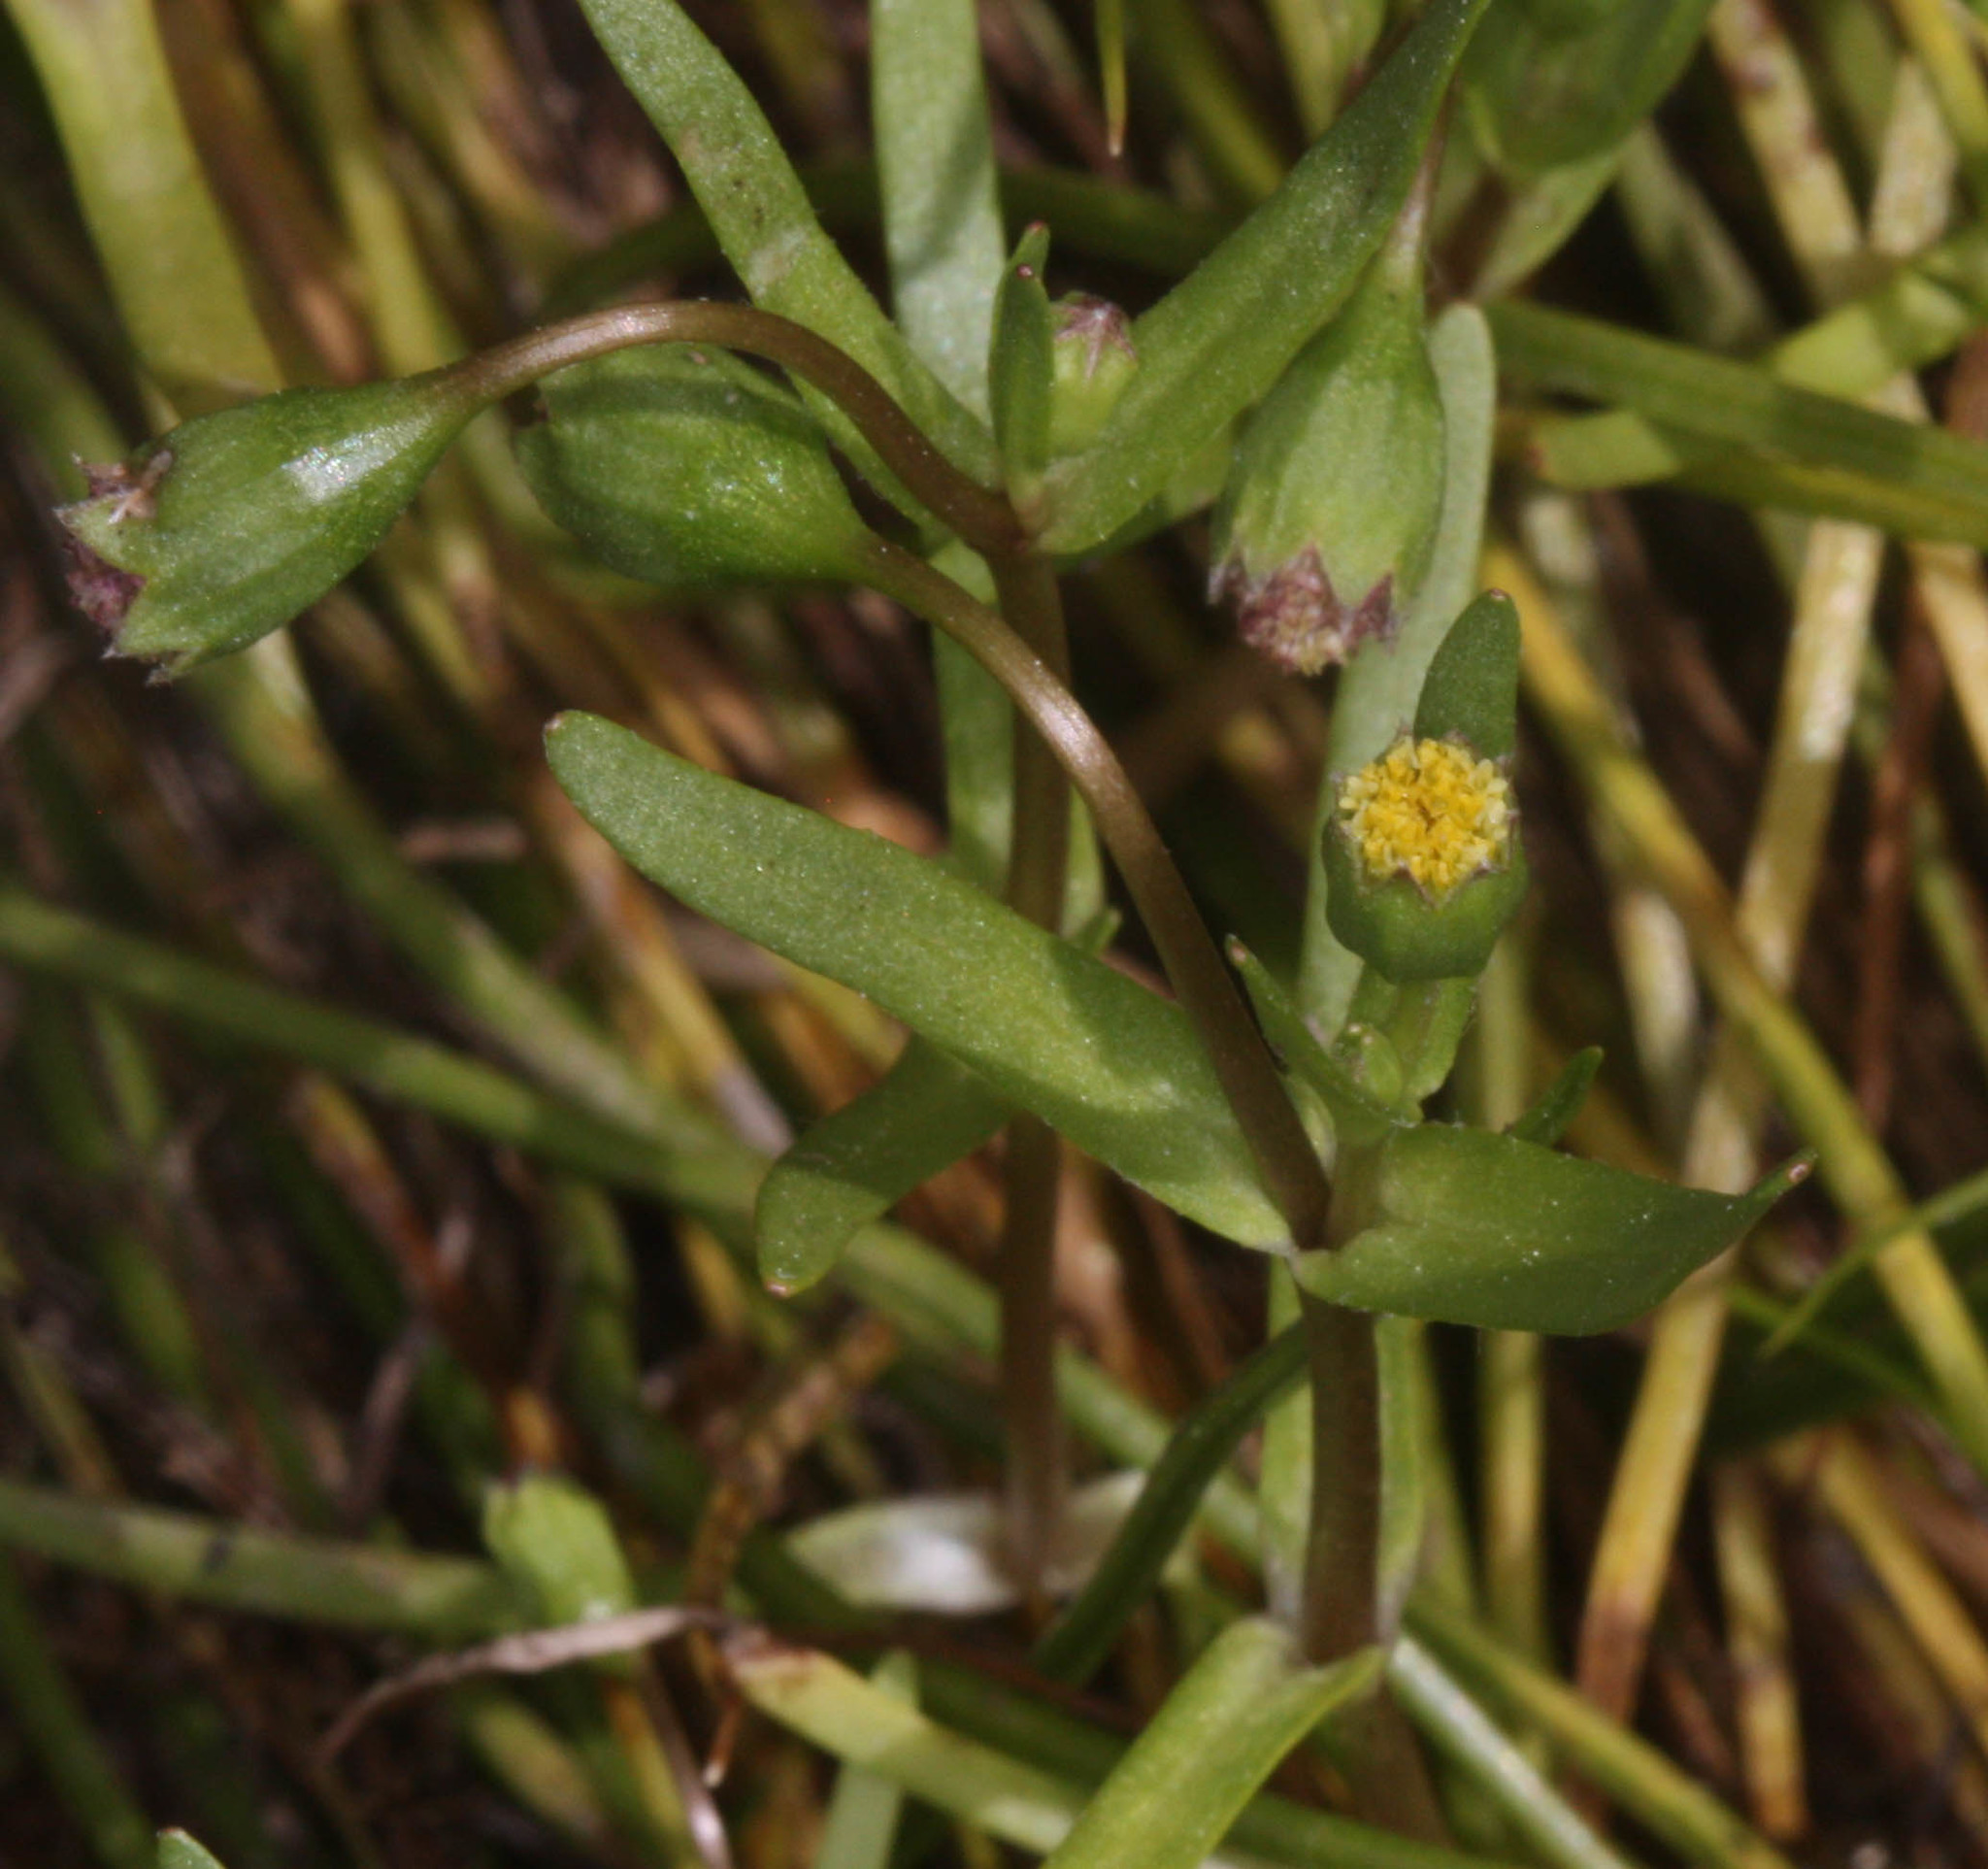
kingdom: Plantae
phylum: Tracheophyta
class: Magnoliopsida
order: Asterales
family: Asteraceae
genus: Lasthenia
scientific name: Lasthenia glaberrima
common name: Smooth goldfields
